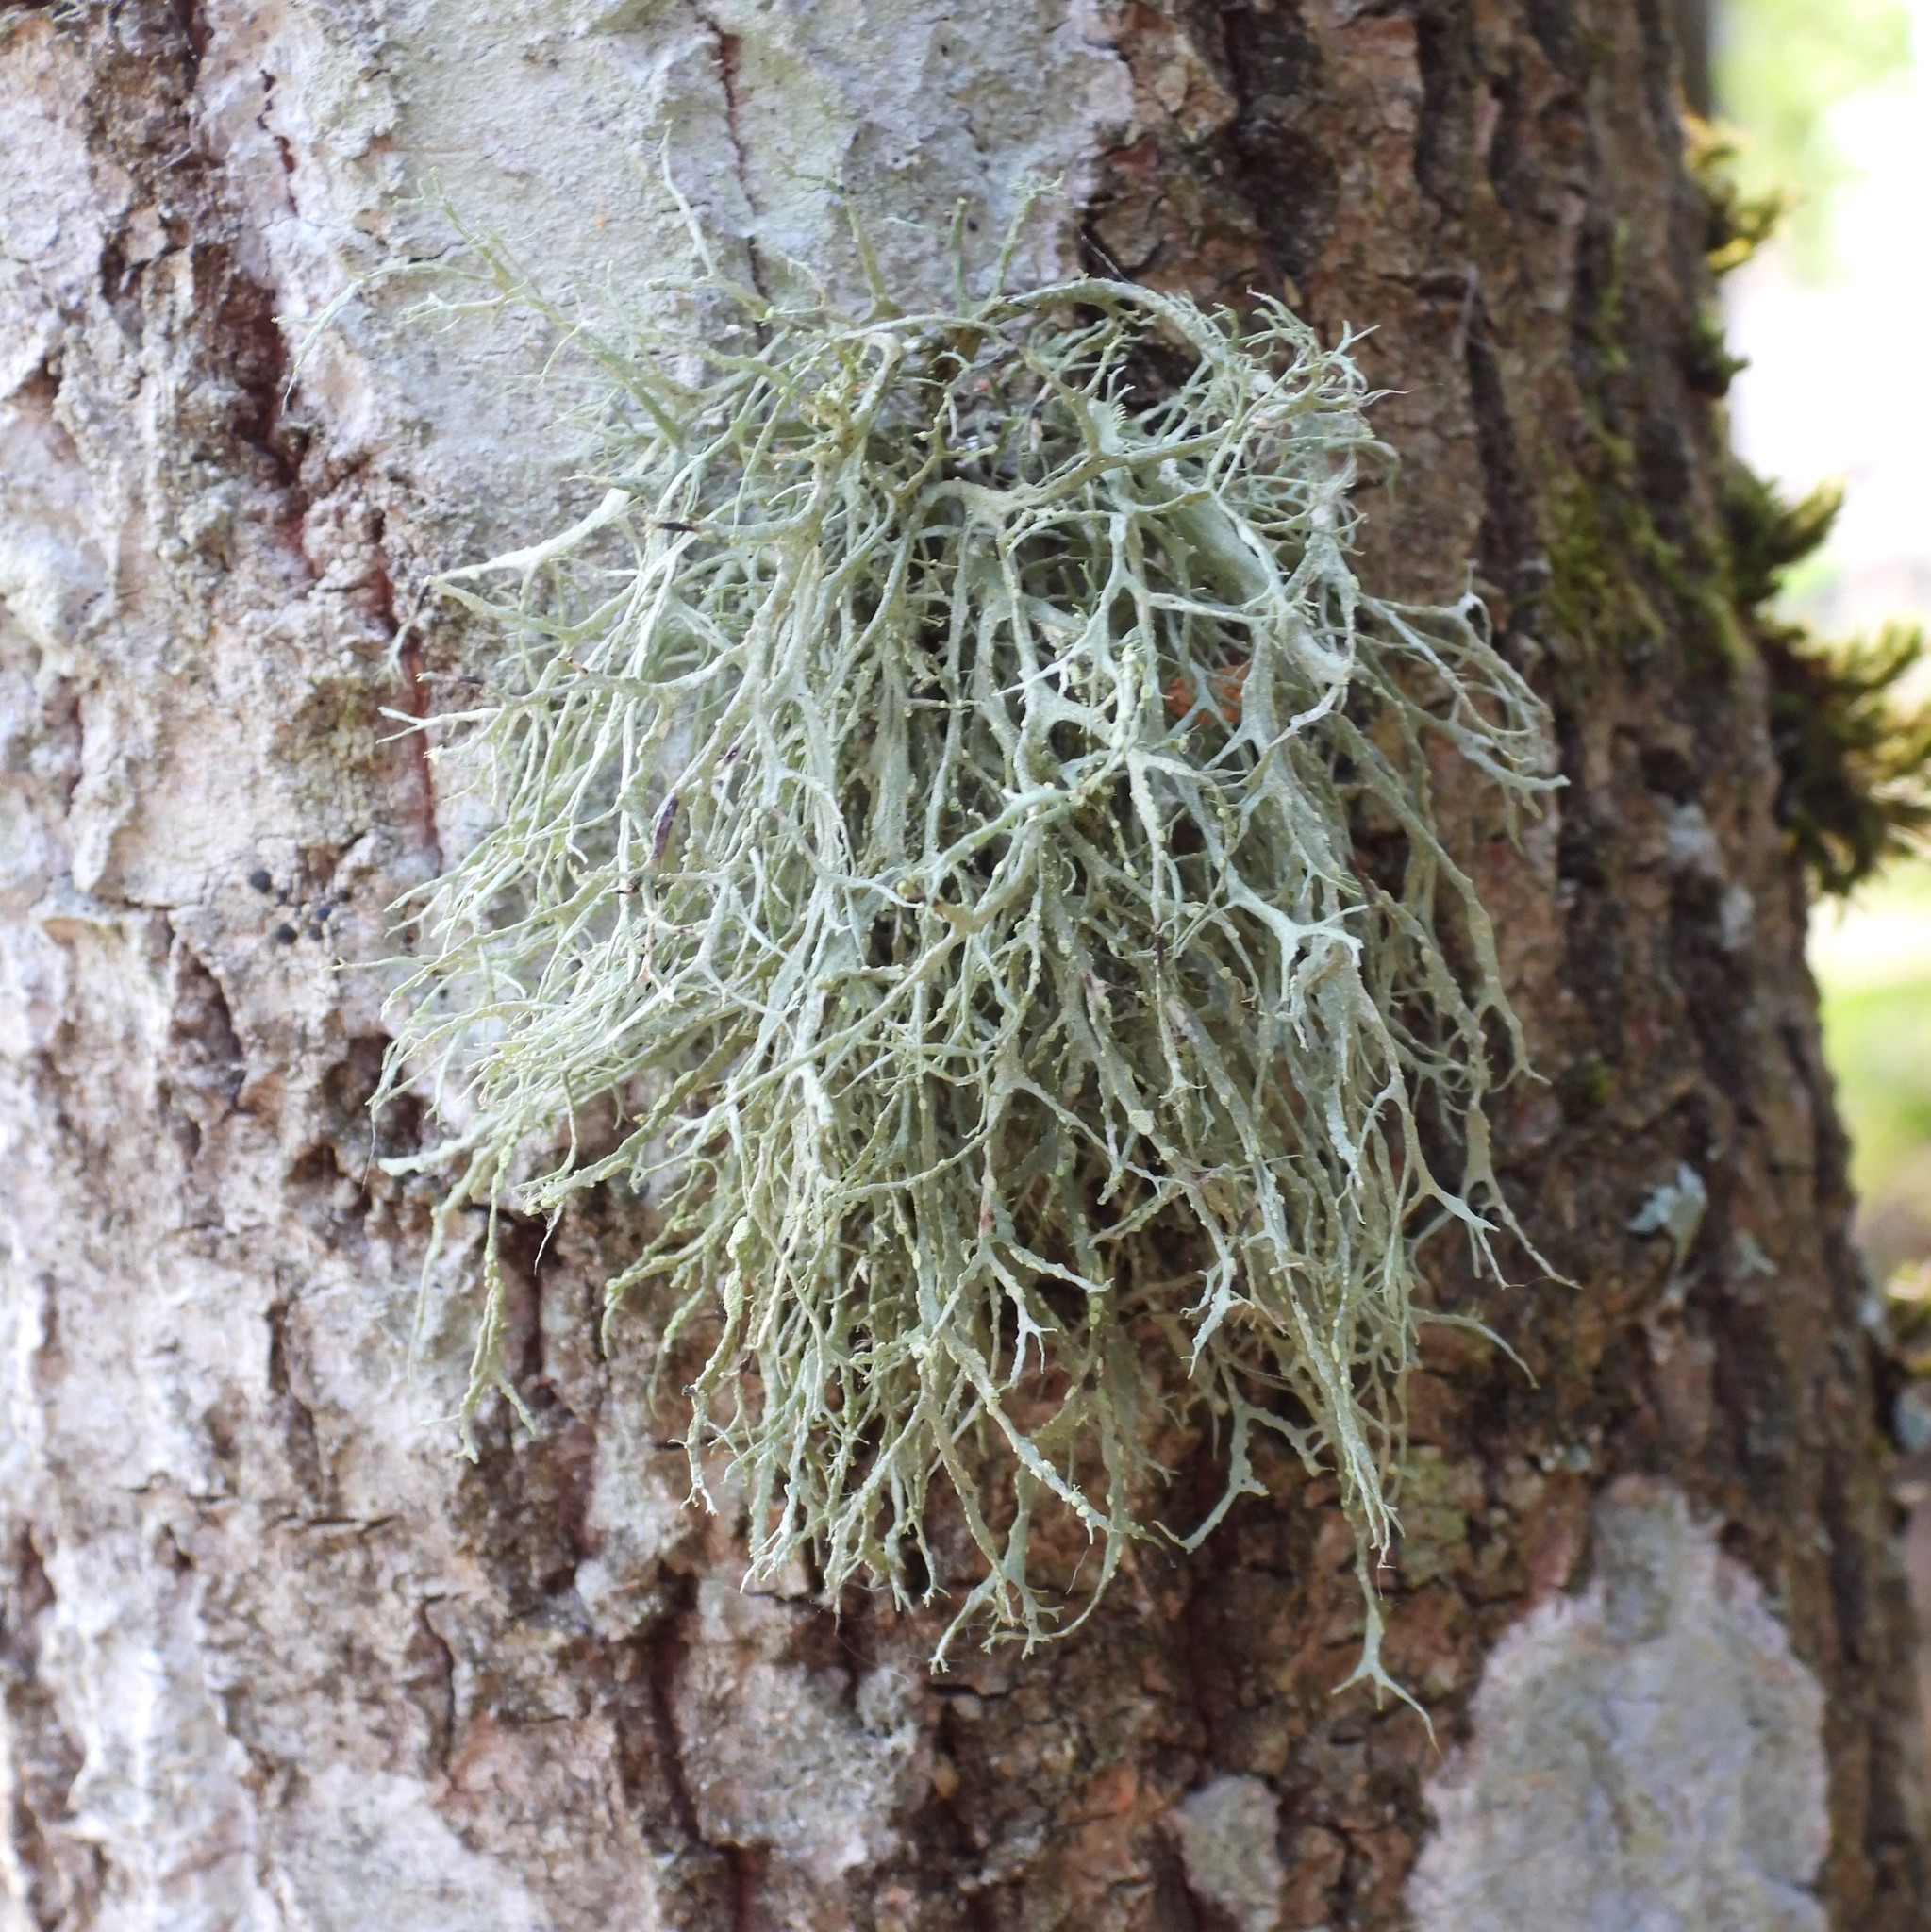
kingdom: Fungi
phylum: Ascomycota
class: Lecanoromycetes
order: Lecanorales
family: Ramalinaceae
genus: Ramalina
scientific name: Ramalina farinacea
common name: Farinose cartilage lichen
